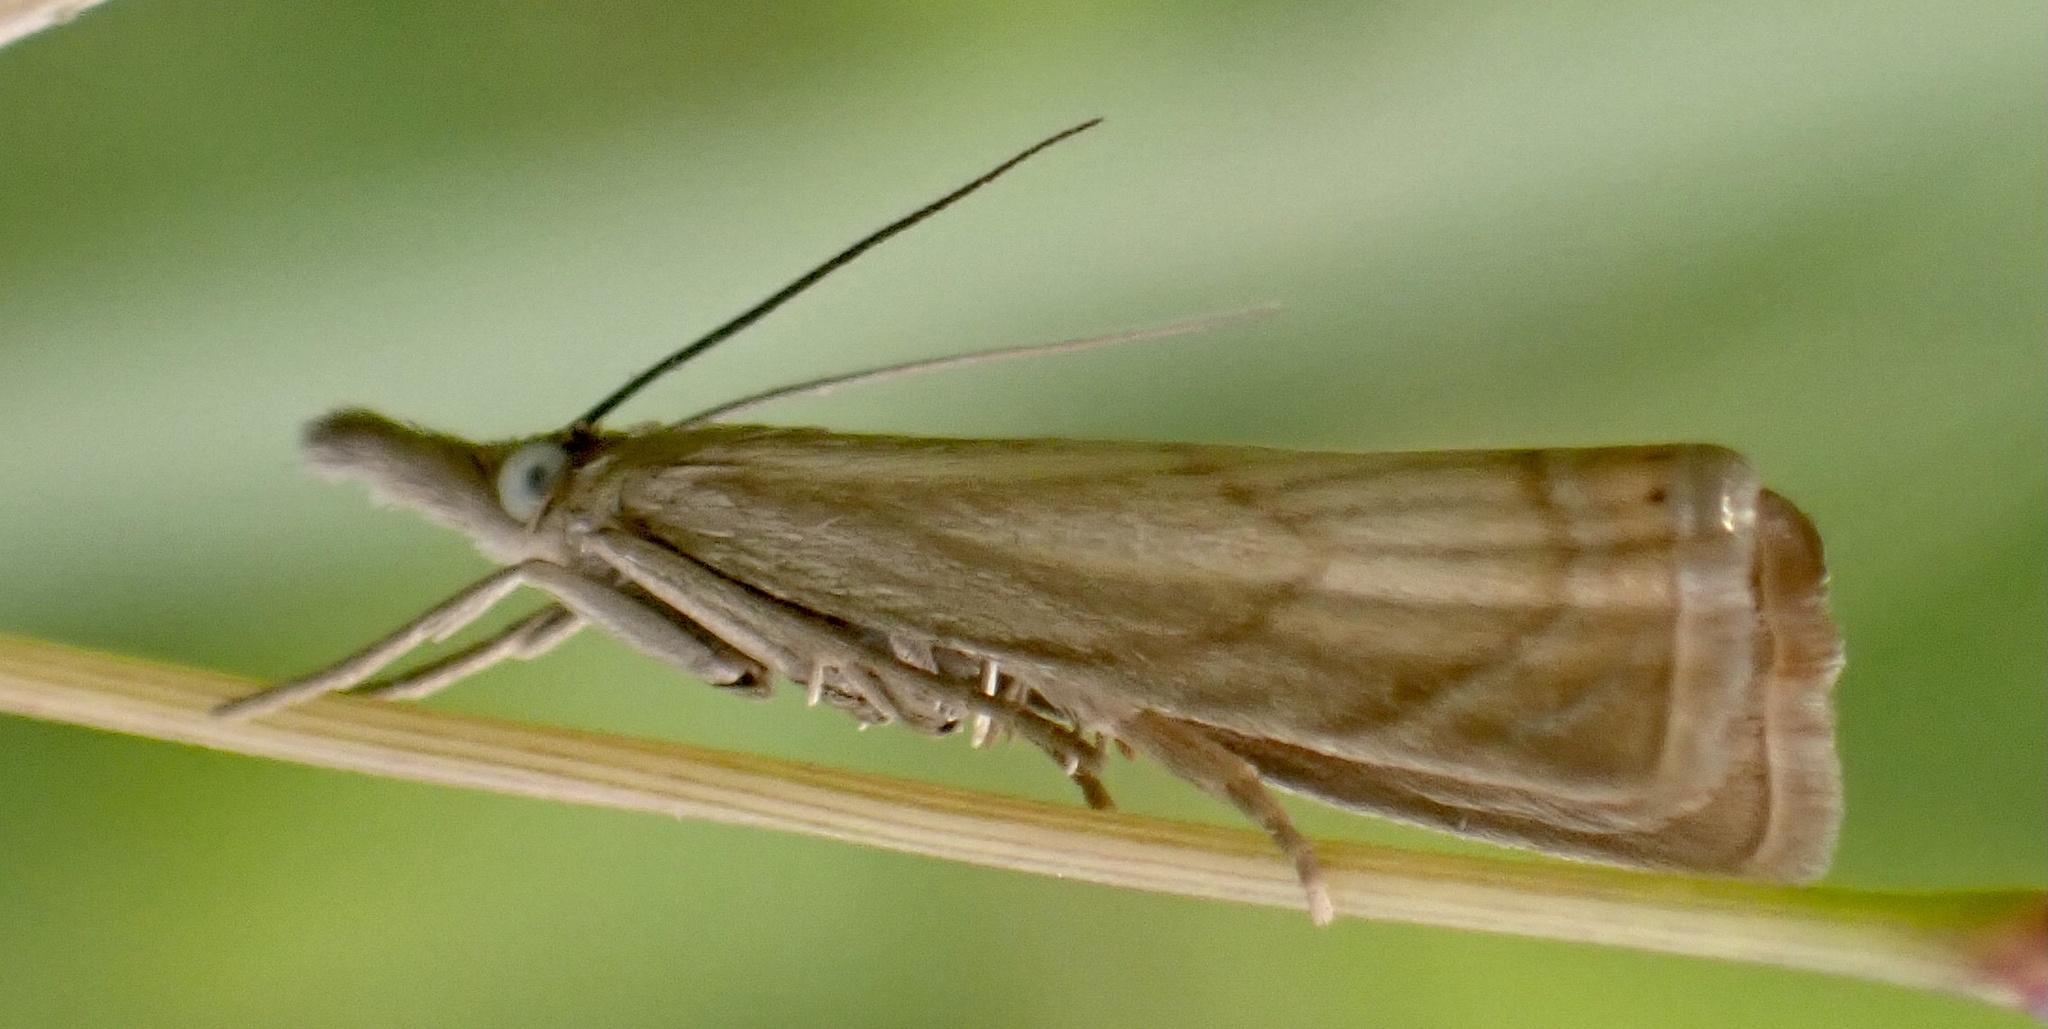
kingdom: Animalia
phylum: Arthropoda
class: Insecta
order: Lepidoptera
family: Crambidae
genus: Chrysoteuchia
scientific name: Chrysoteuchia culmella
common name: Garden grass-veneer
